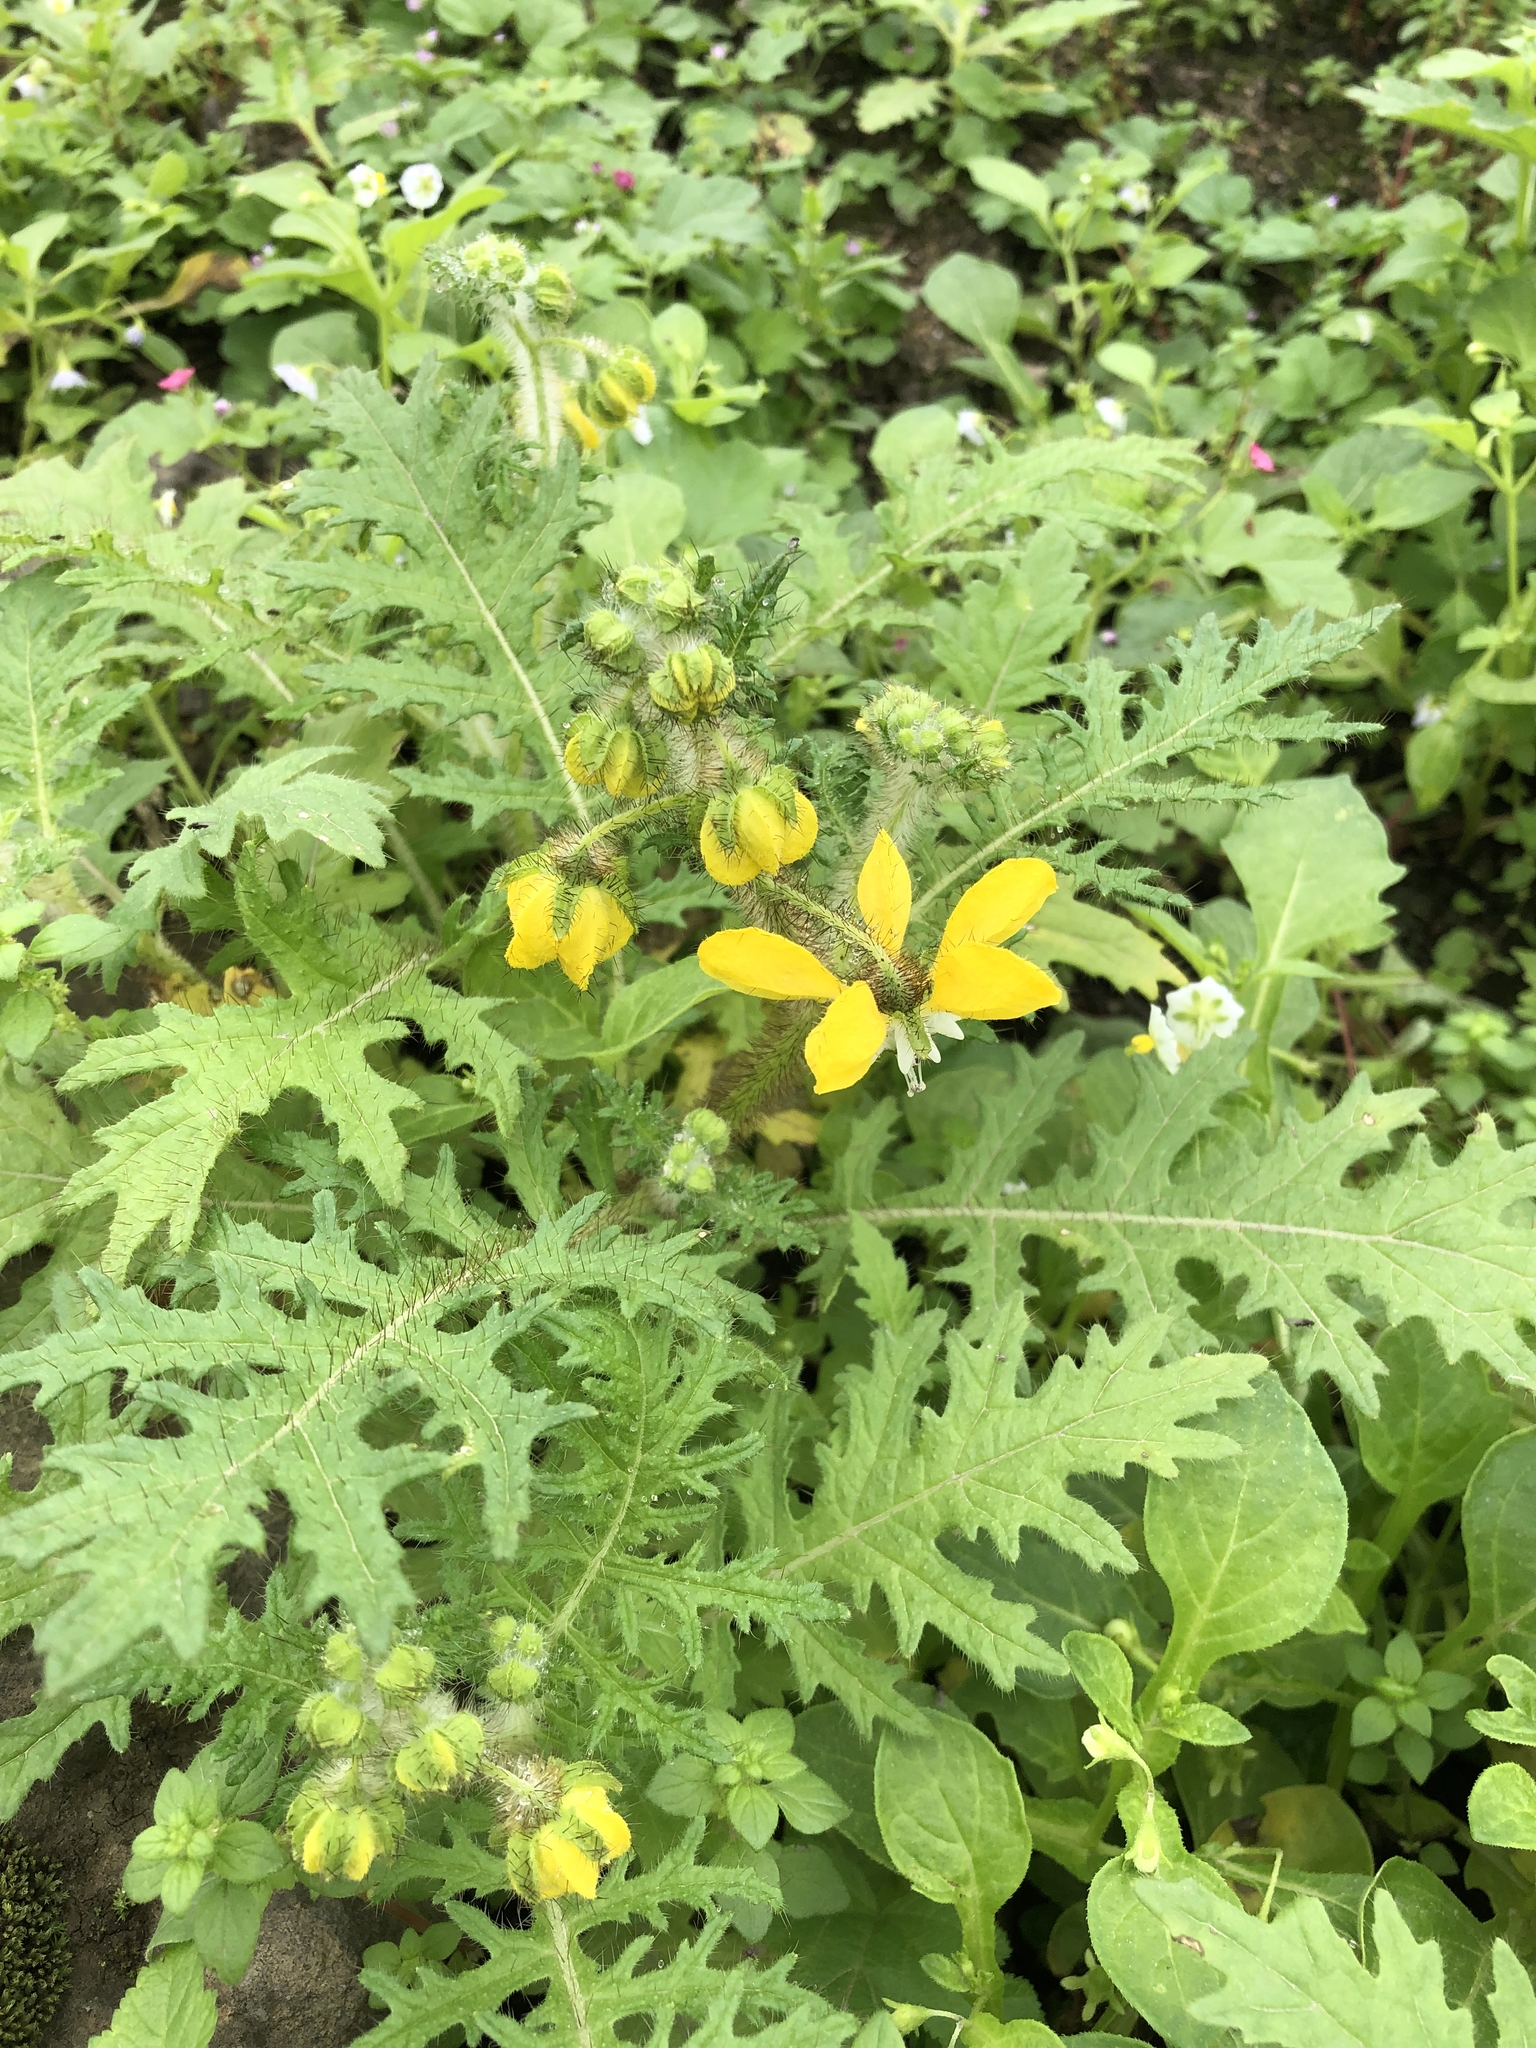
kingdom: Plantae
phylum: Tracheophyta
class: Magnoliopsida
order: Cornales
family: Loasaceae
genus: Nasa
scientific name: Nasa urens
